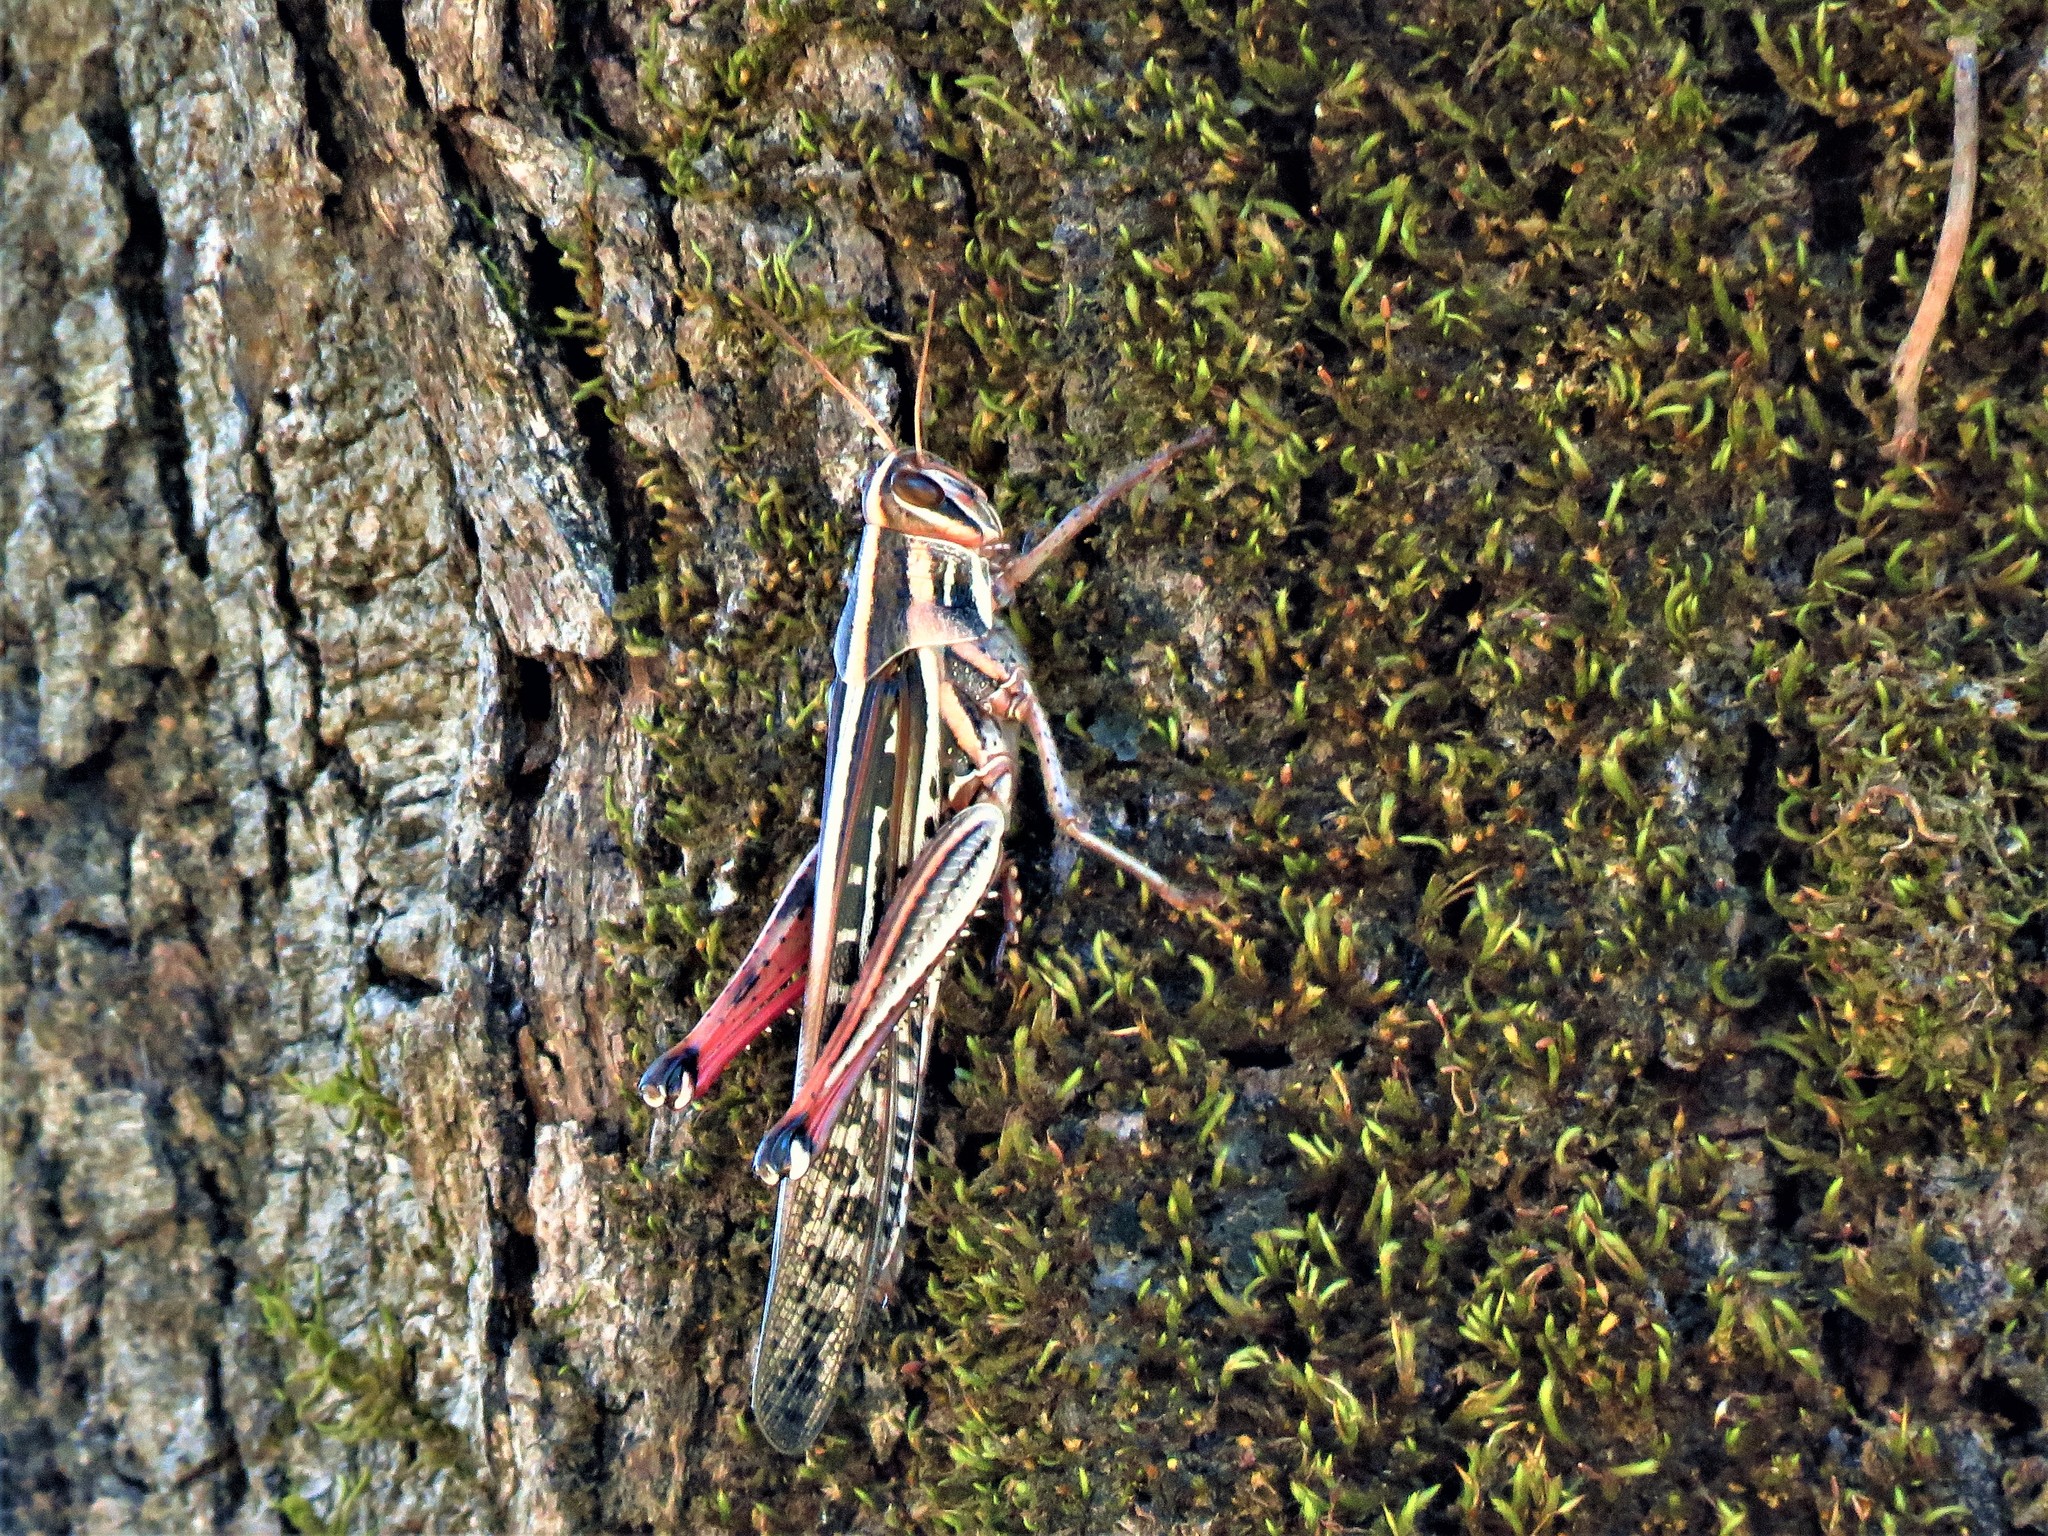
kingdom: Animalia
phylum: Arthropoda
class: Insecta
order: Orthoptera
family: Acrididae
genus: Schistocerca
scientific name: Schistocerca americana
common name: American bird locust
